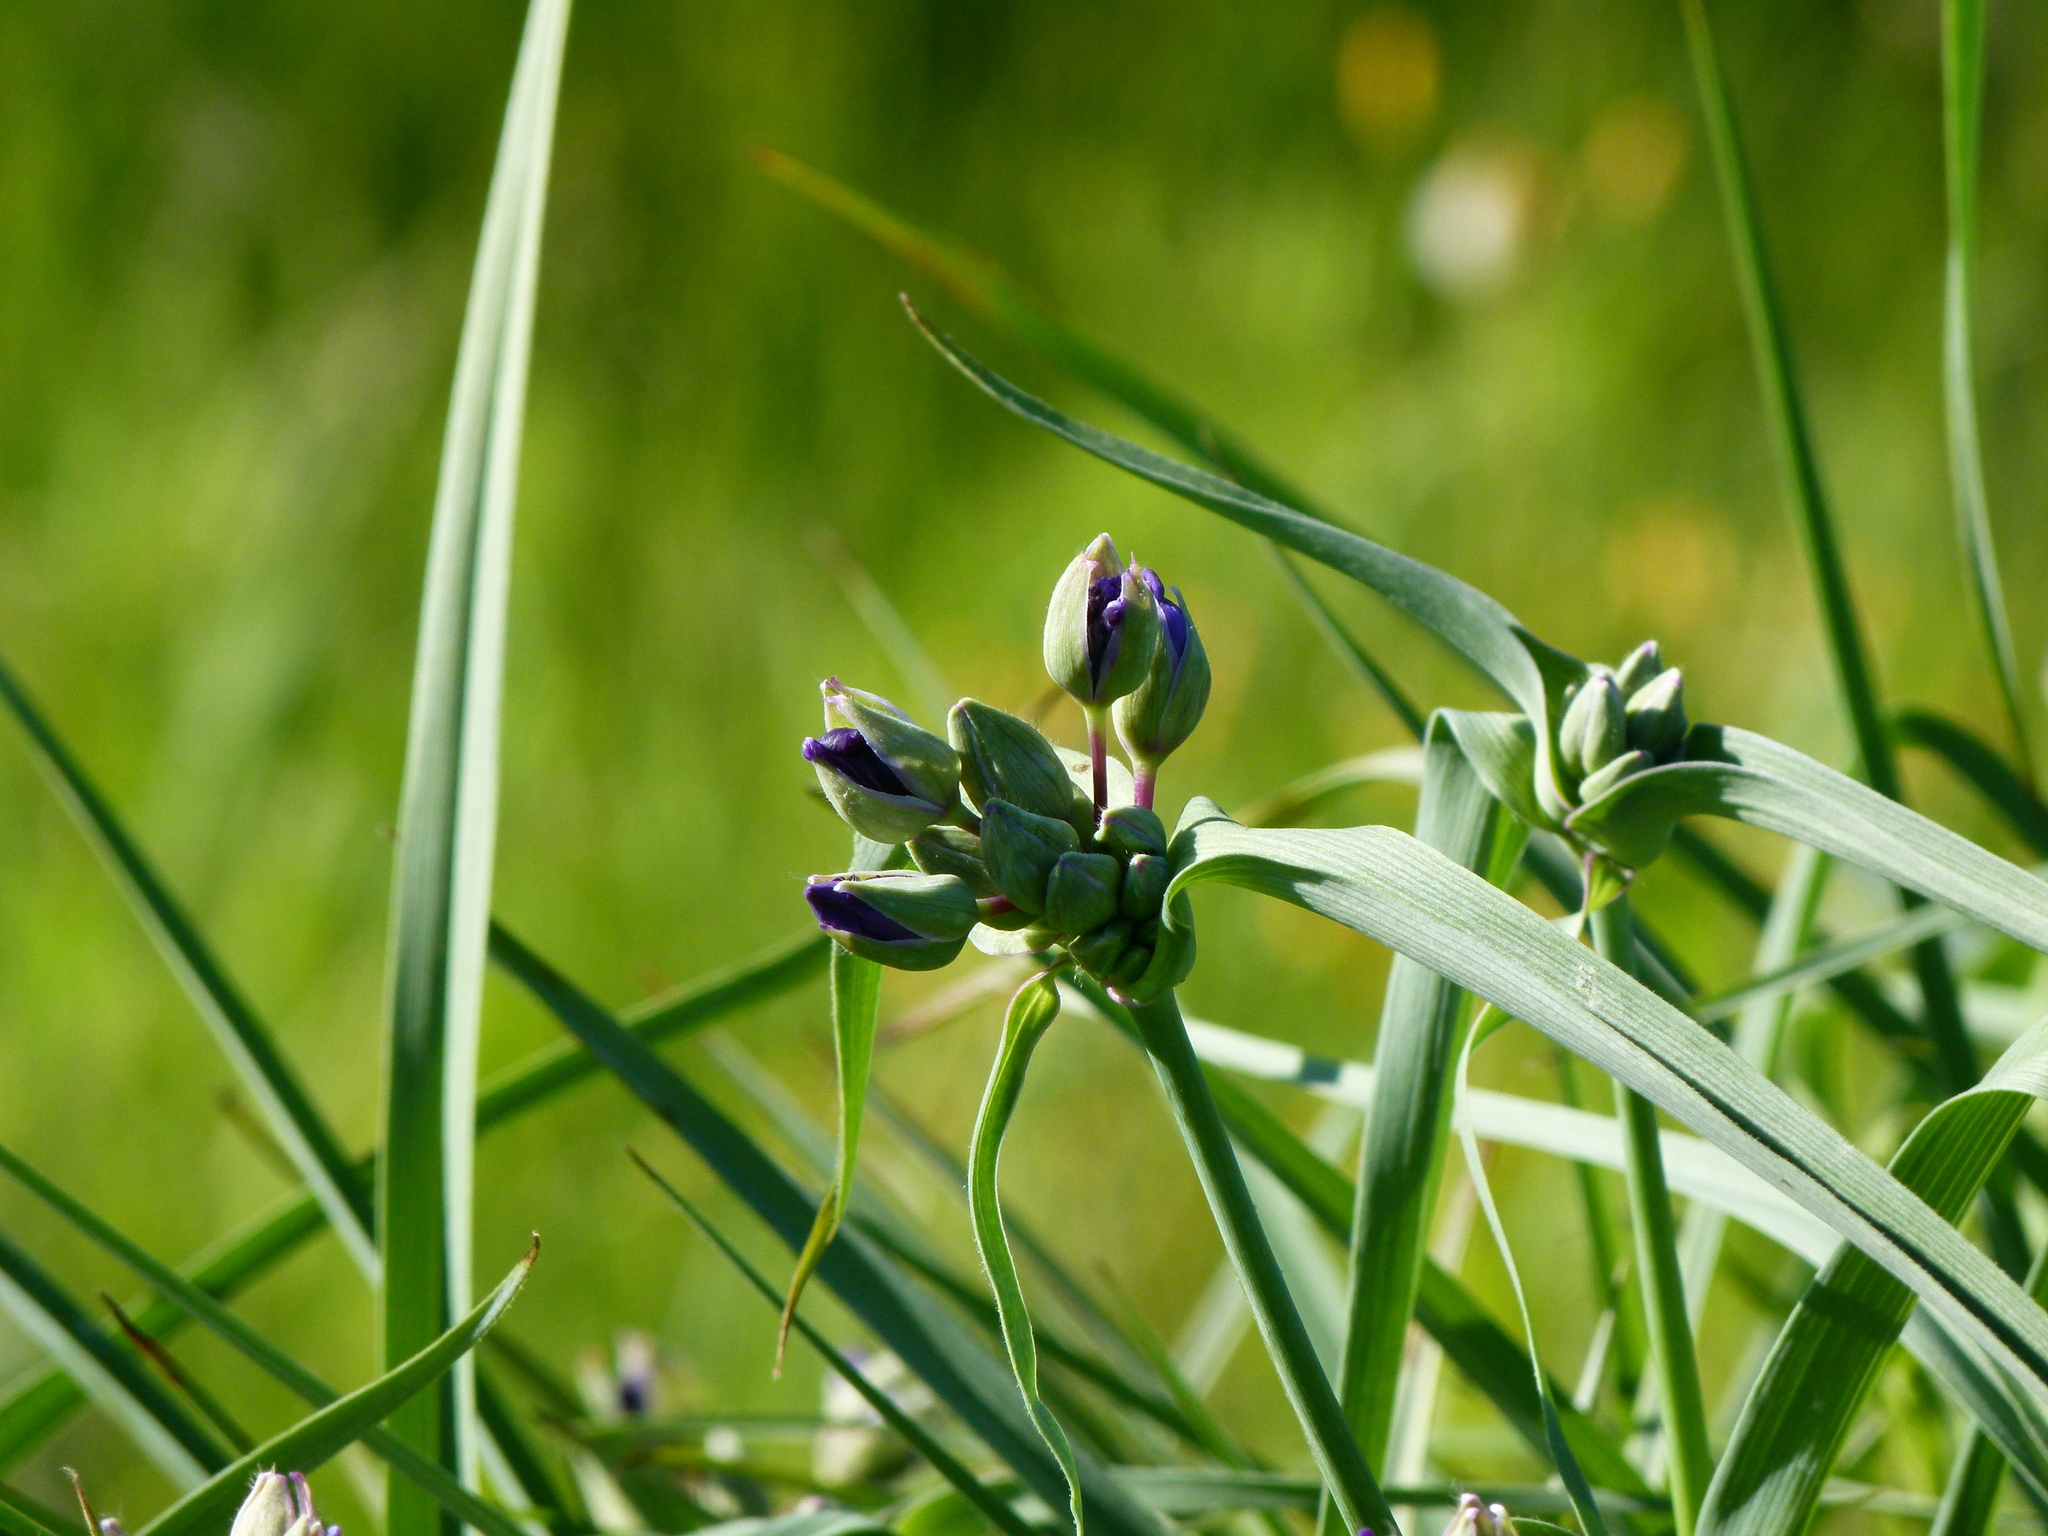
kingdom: Plantae
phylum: Tracheophyta
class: Liliopsida
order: Commelinales
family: Commelinaceae
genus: Tradescantia
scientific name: Tradescantia
